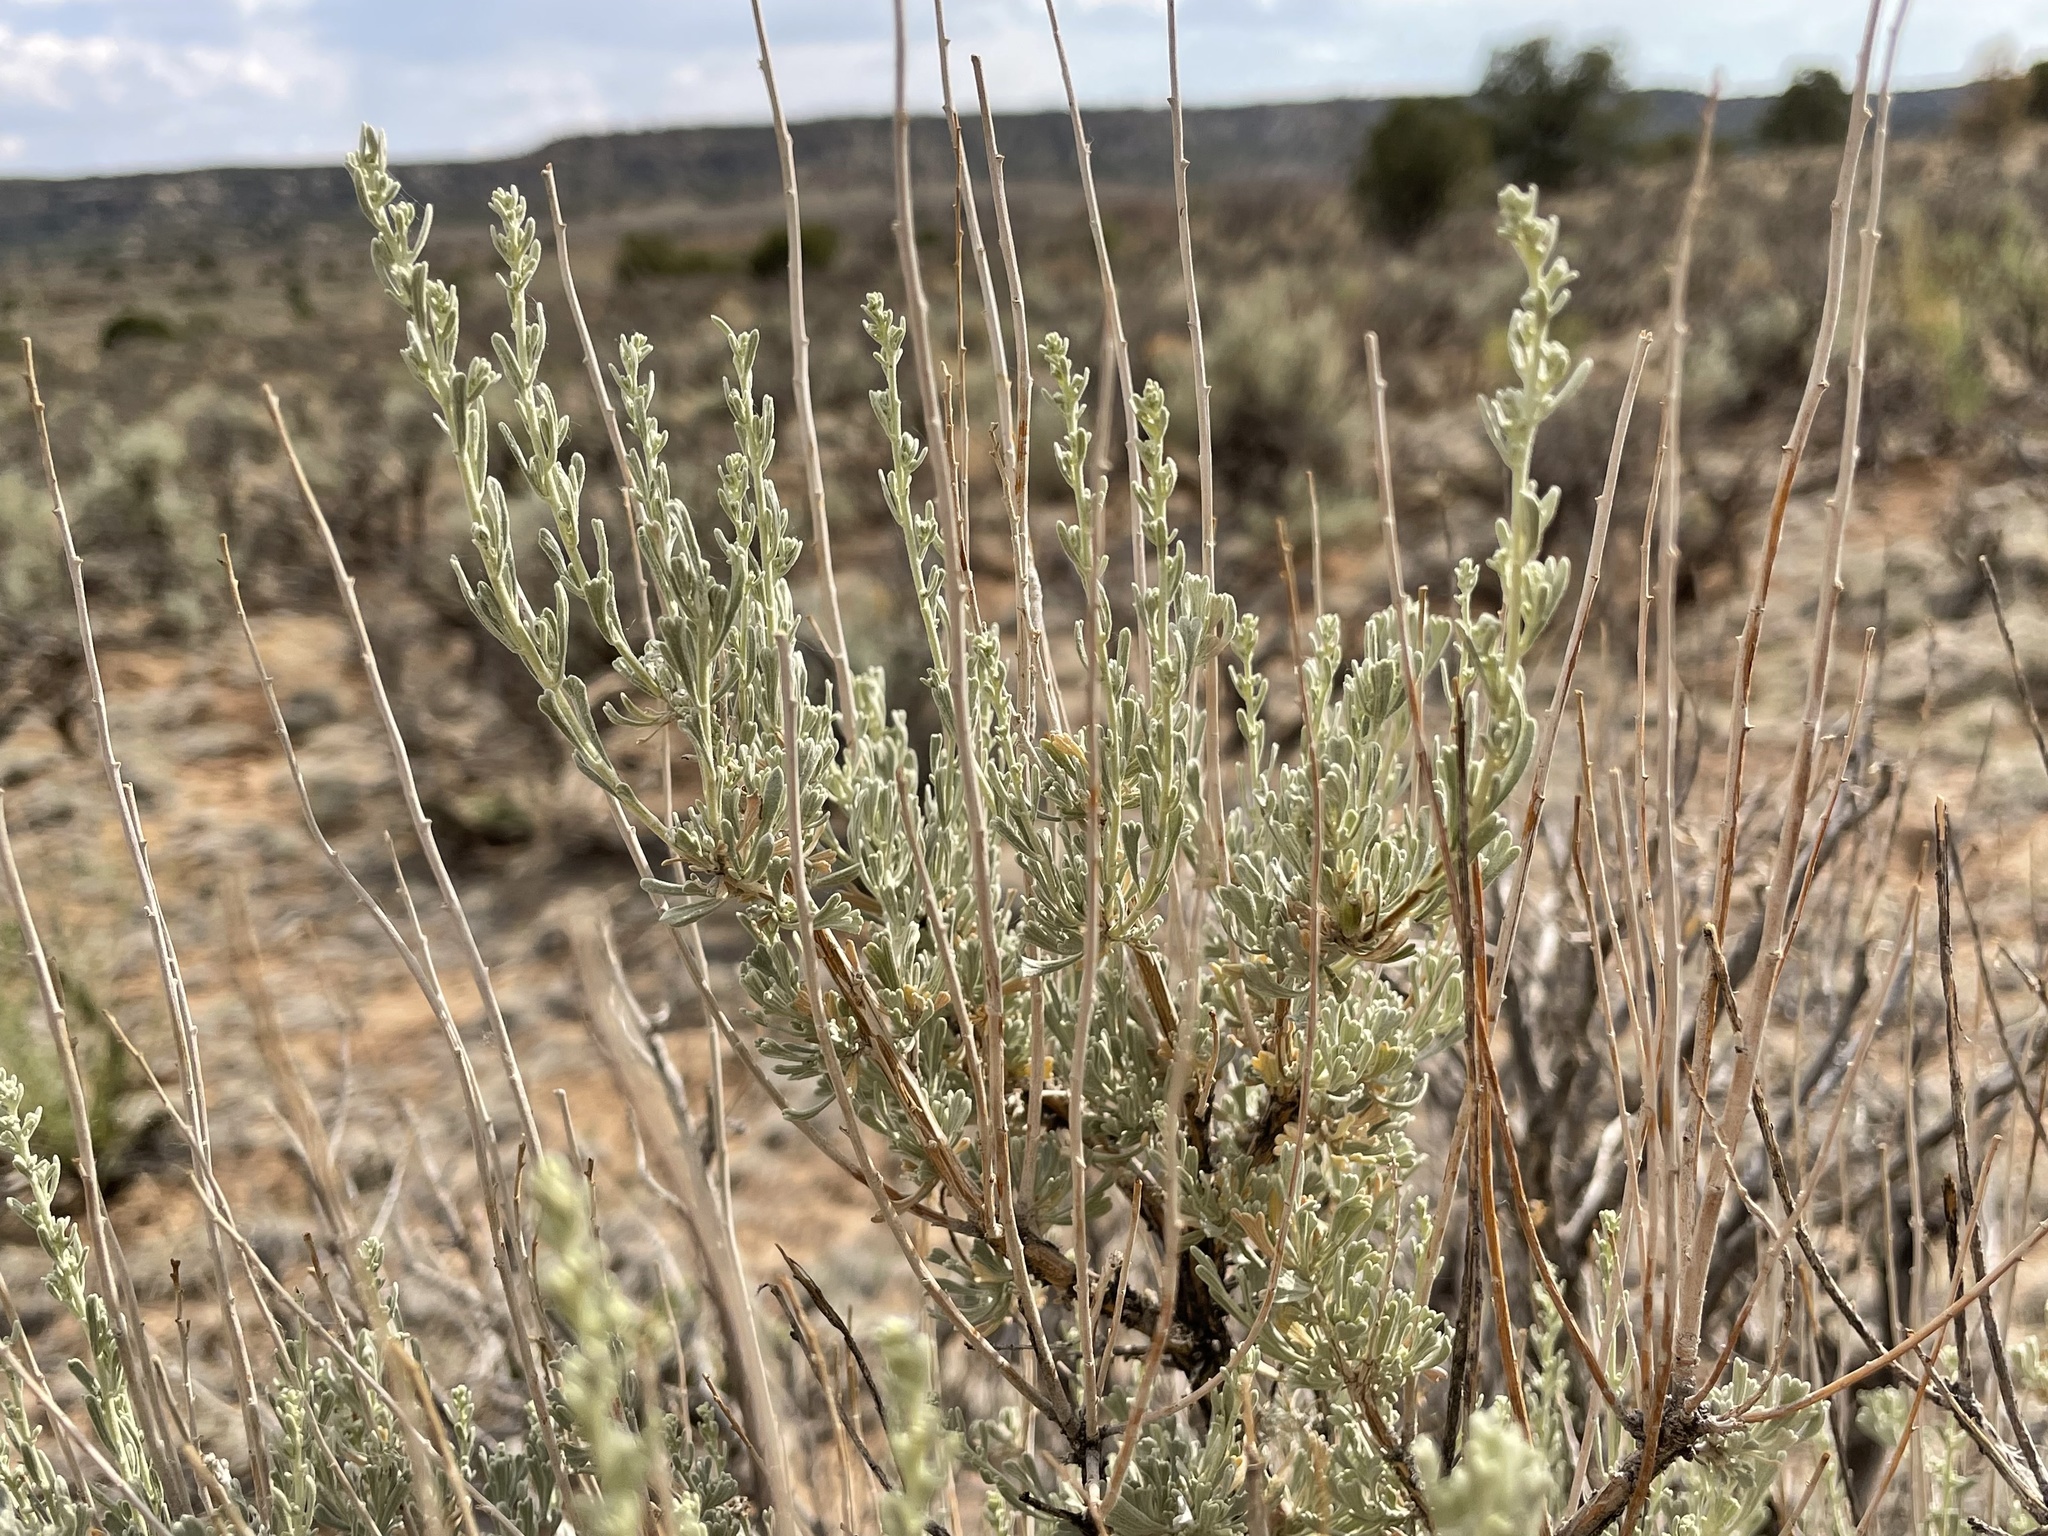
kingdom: Plantae
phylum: Tracheophyta
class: Magnoliopsida
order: Asterales
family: Asteraceae
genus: Artemisia
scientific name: Artemisia tridentata
